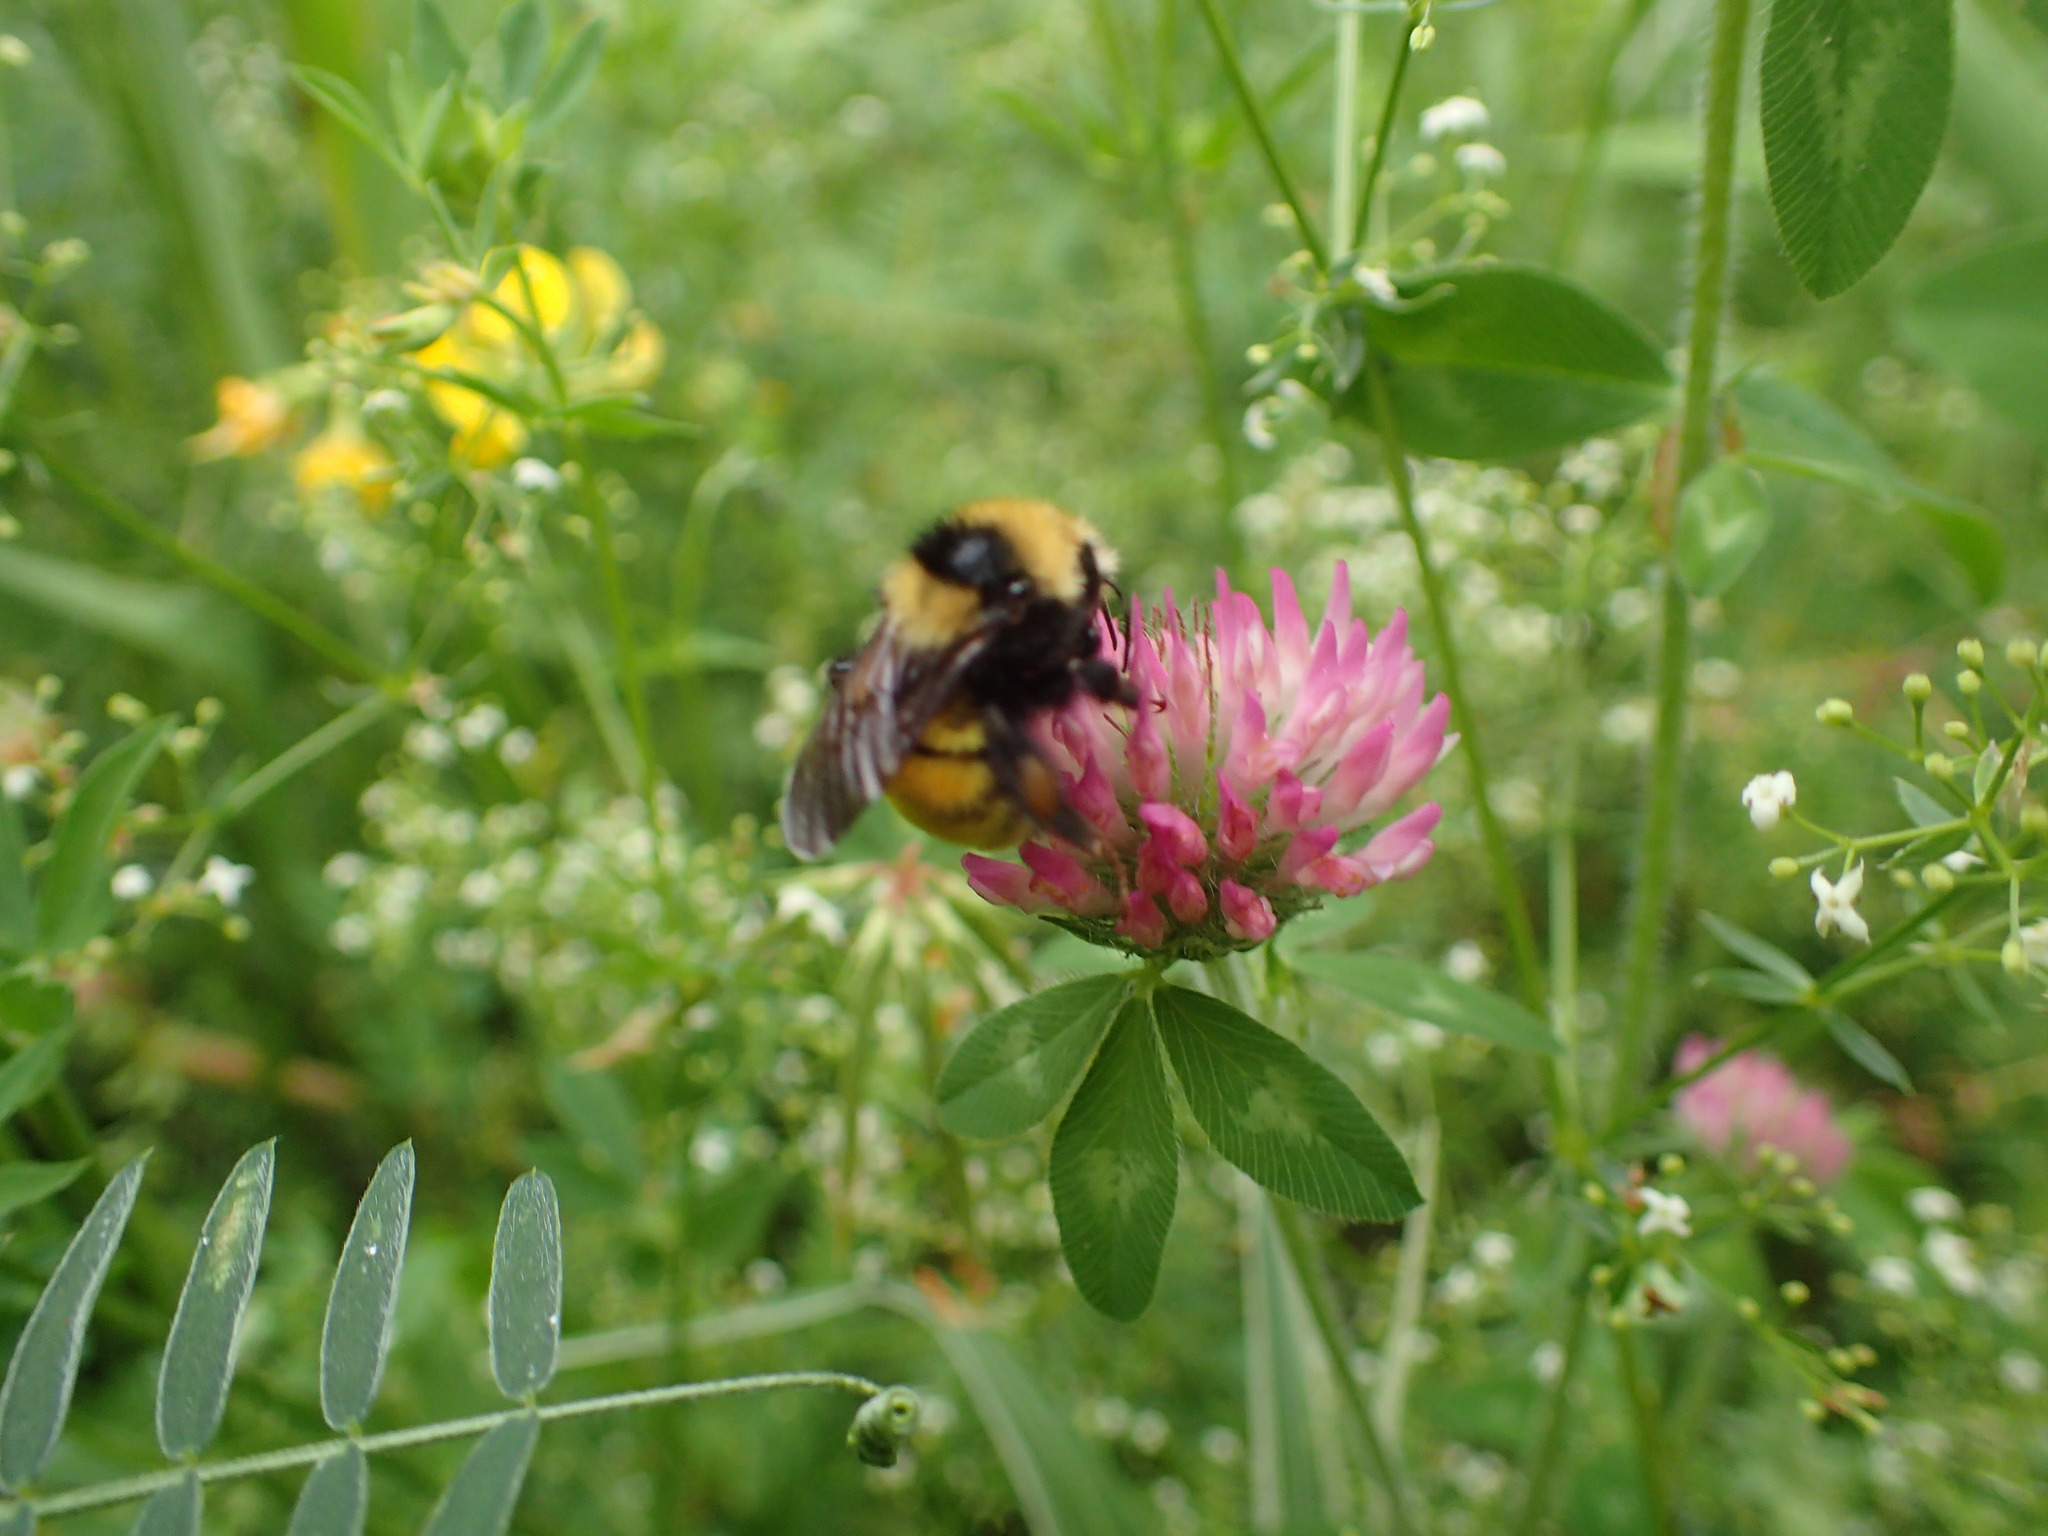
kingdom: Animalia
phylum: Arthropoda
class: Insecta
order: Hymenoptera
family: Apidae
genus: Bombus
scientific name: Bombus borealis
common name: Northern amber bumble bee
